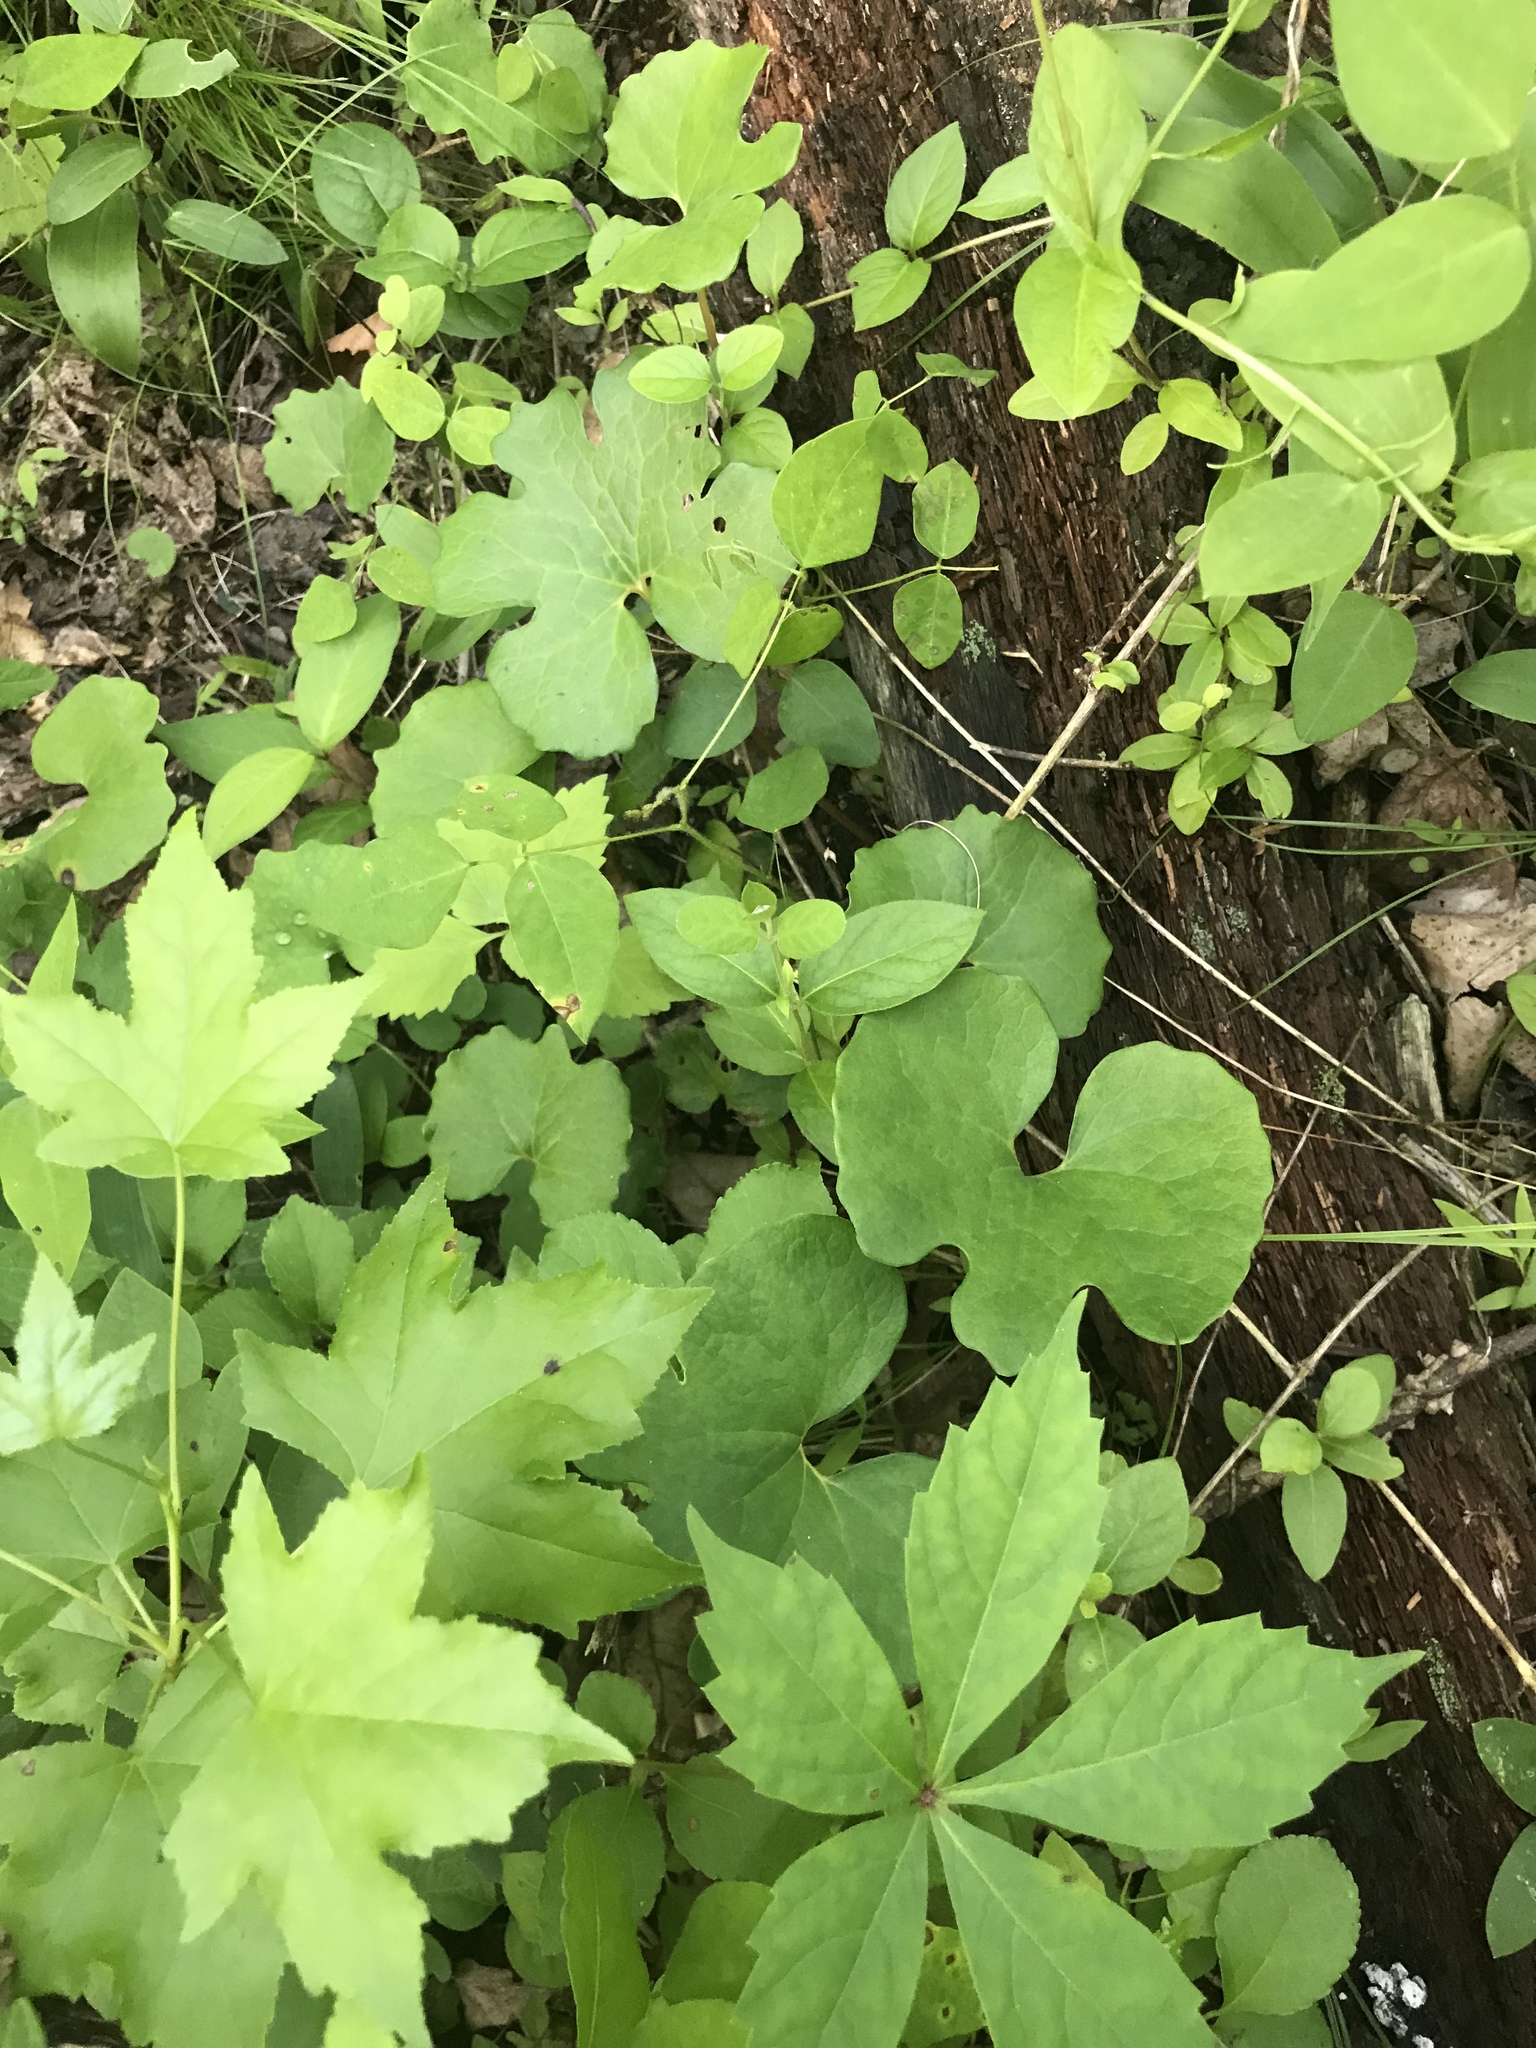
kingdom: Plantae
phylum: Tracheophyta
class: Magnoliopsida
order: Ranunculales
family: Papaveraceae
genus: Sanguinaria
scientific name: Sanguinaria canadensis
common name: Bloodroot
